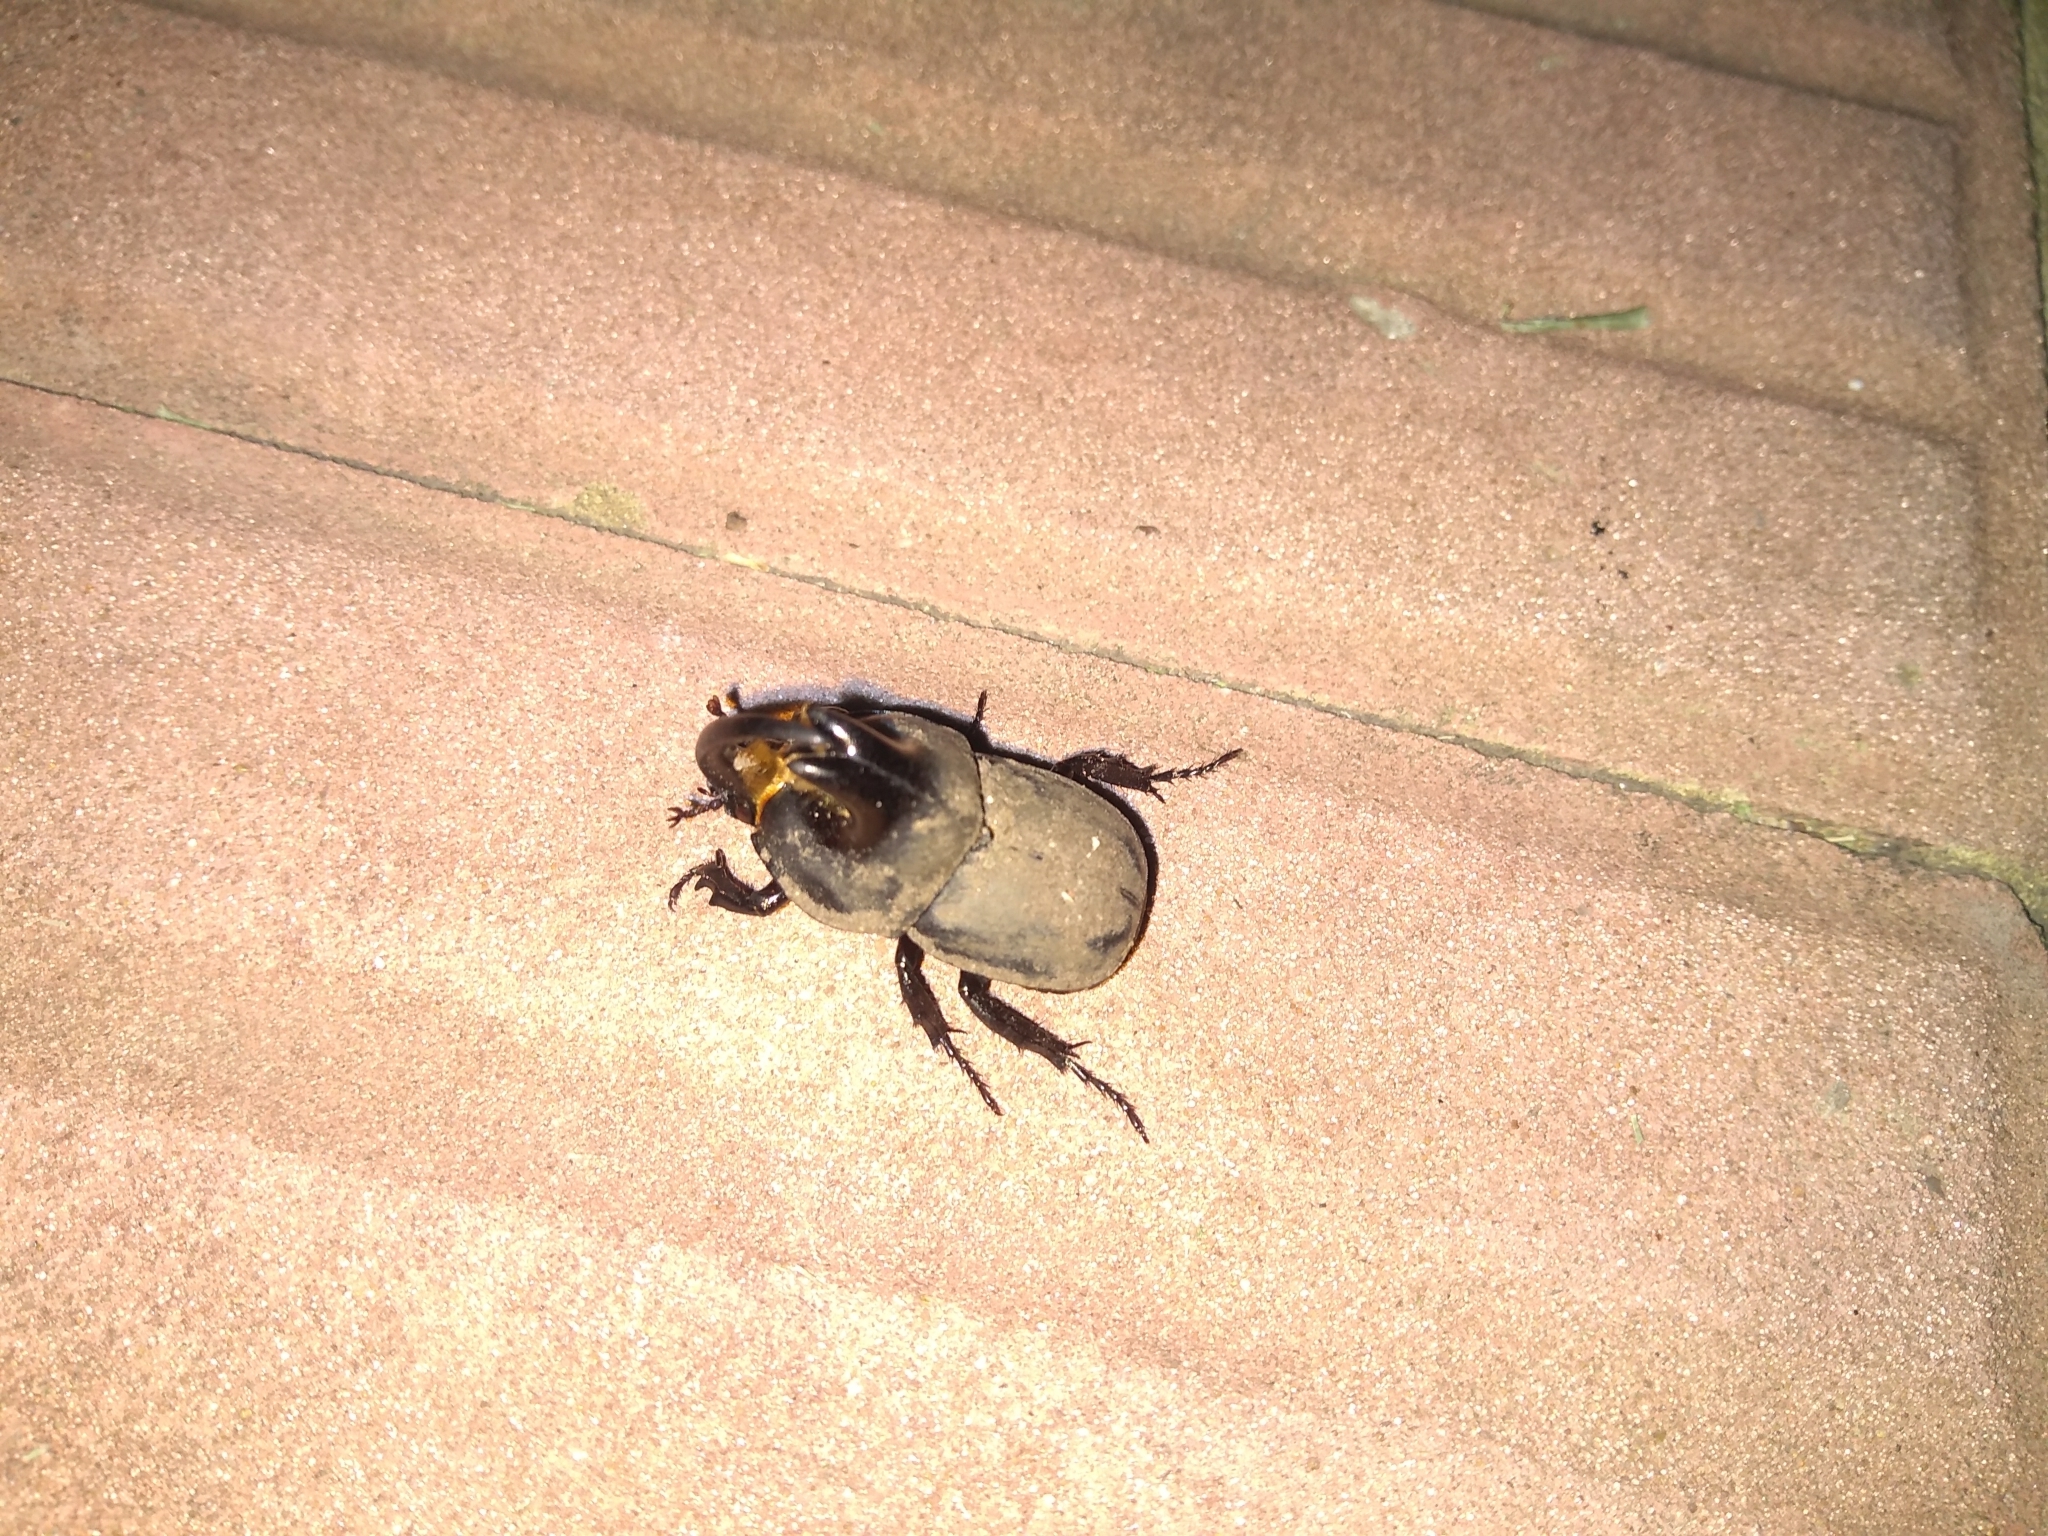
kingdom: Animalia
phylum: Arthropoda
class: Insecta
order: Coleoptera
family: Scarabaeidae
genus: Diloboderus
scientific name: Diloboderus abderus
